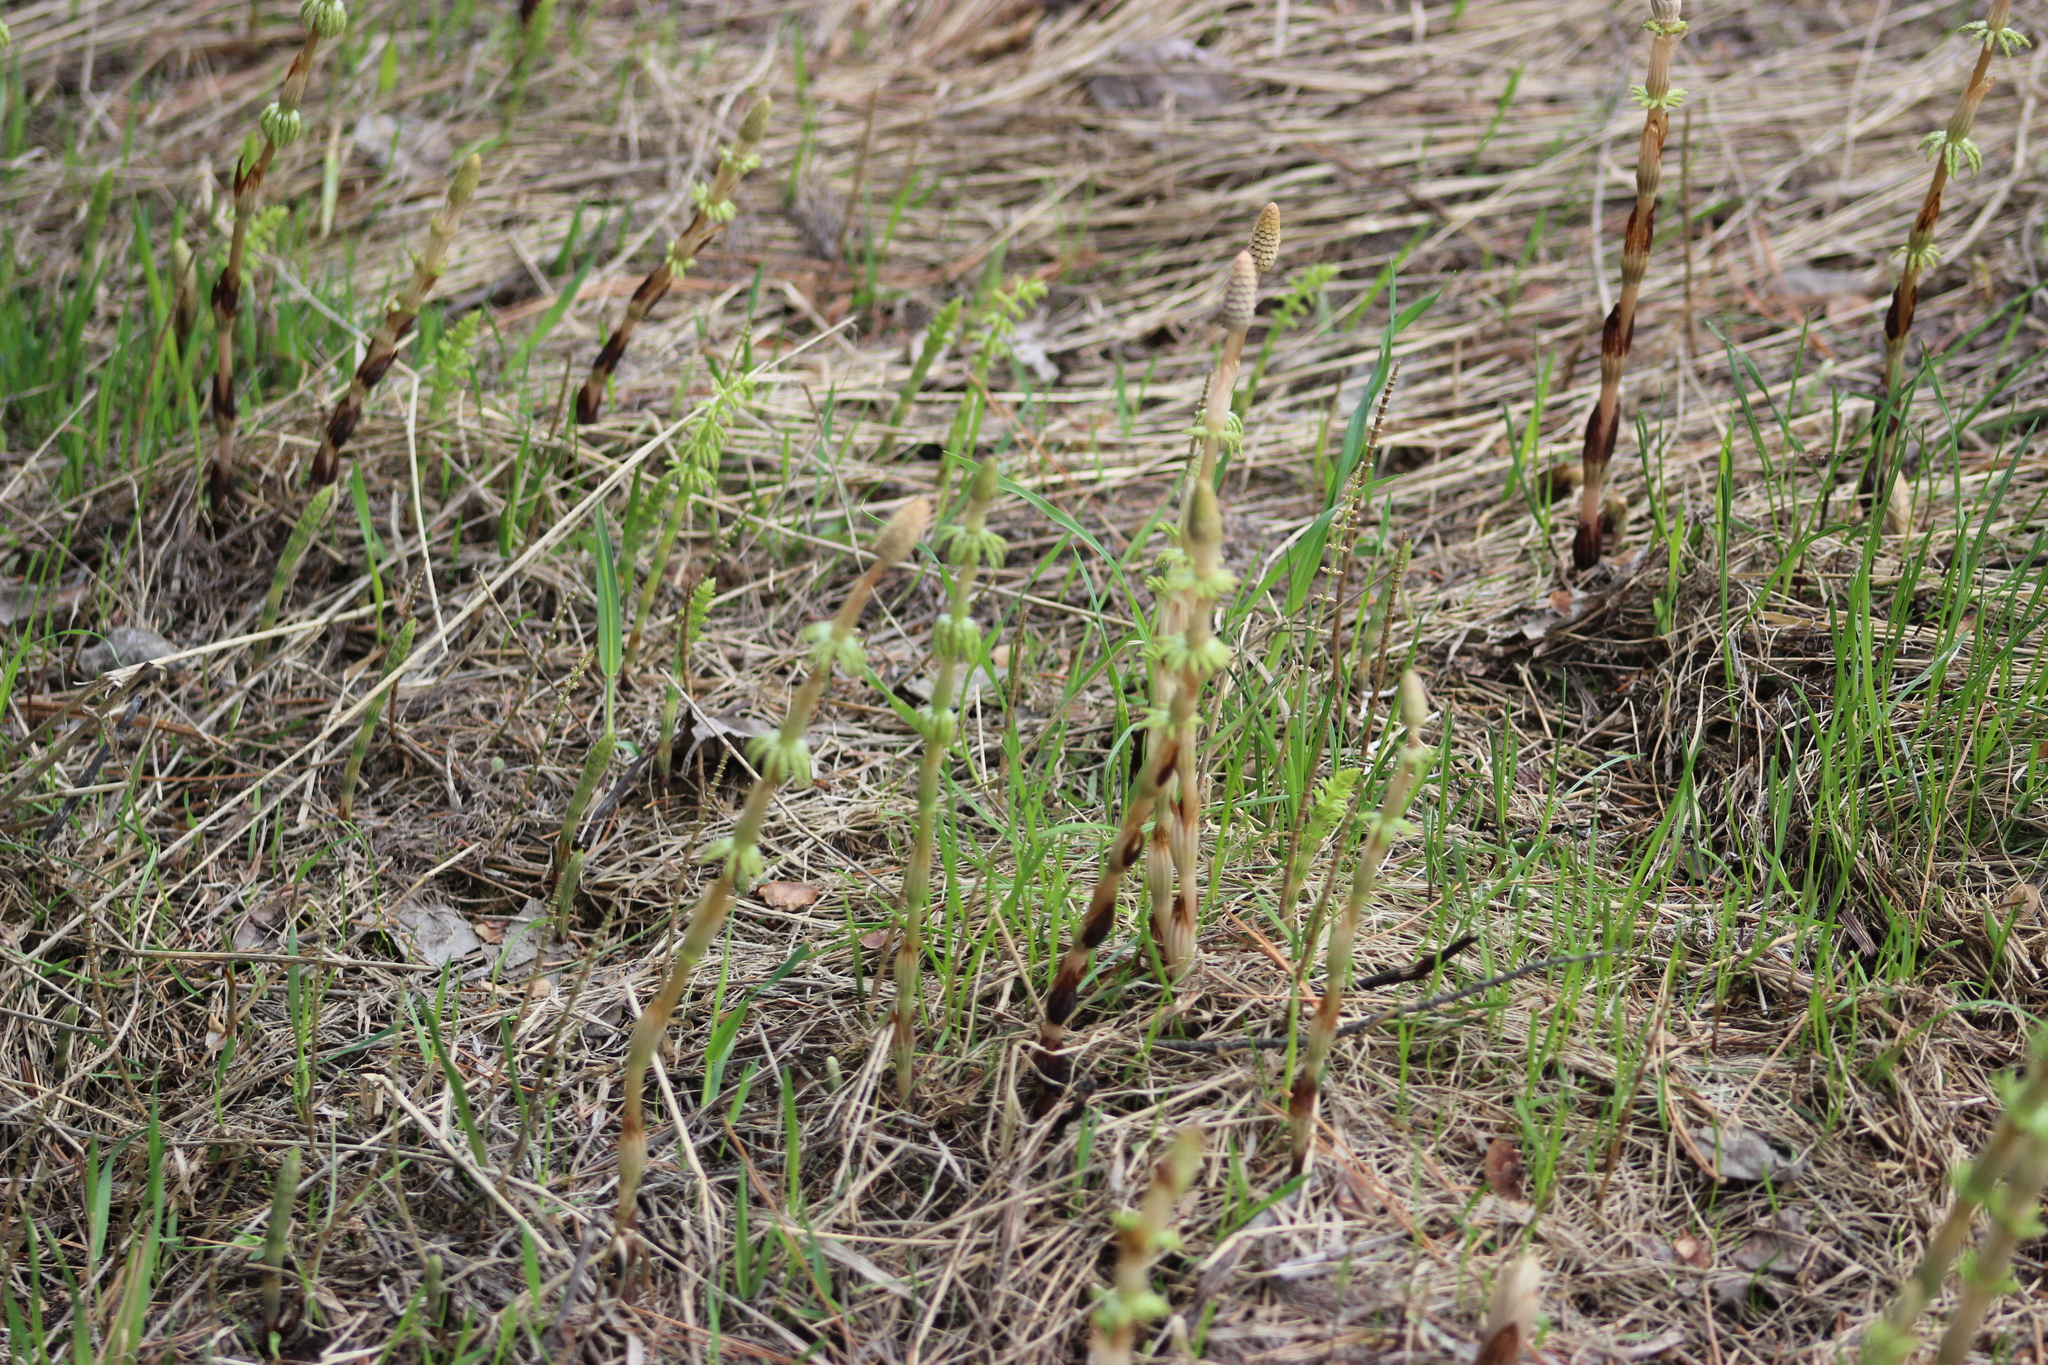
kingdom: Plantae
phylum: Tracheophyta
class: Polypodiopsida
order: Equisetales
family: Equisetaceae
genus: Equisetum
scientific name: Equisetum sylvaticum
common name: Wood horsetail
